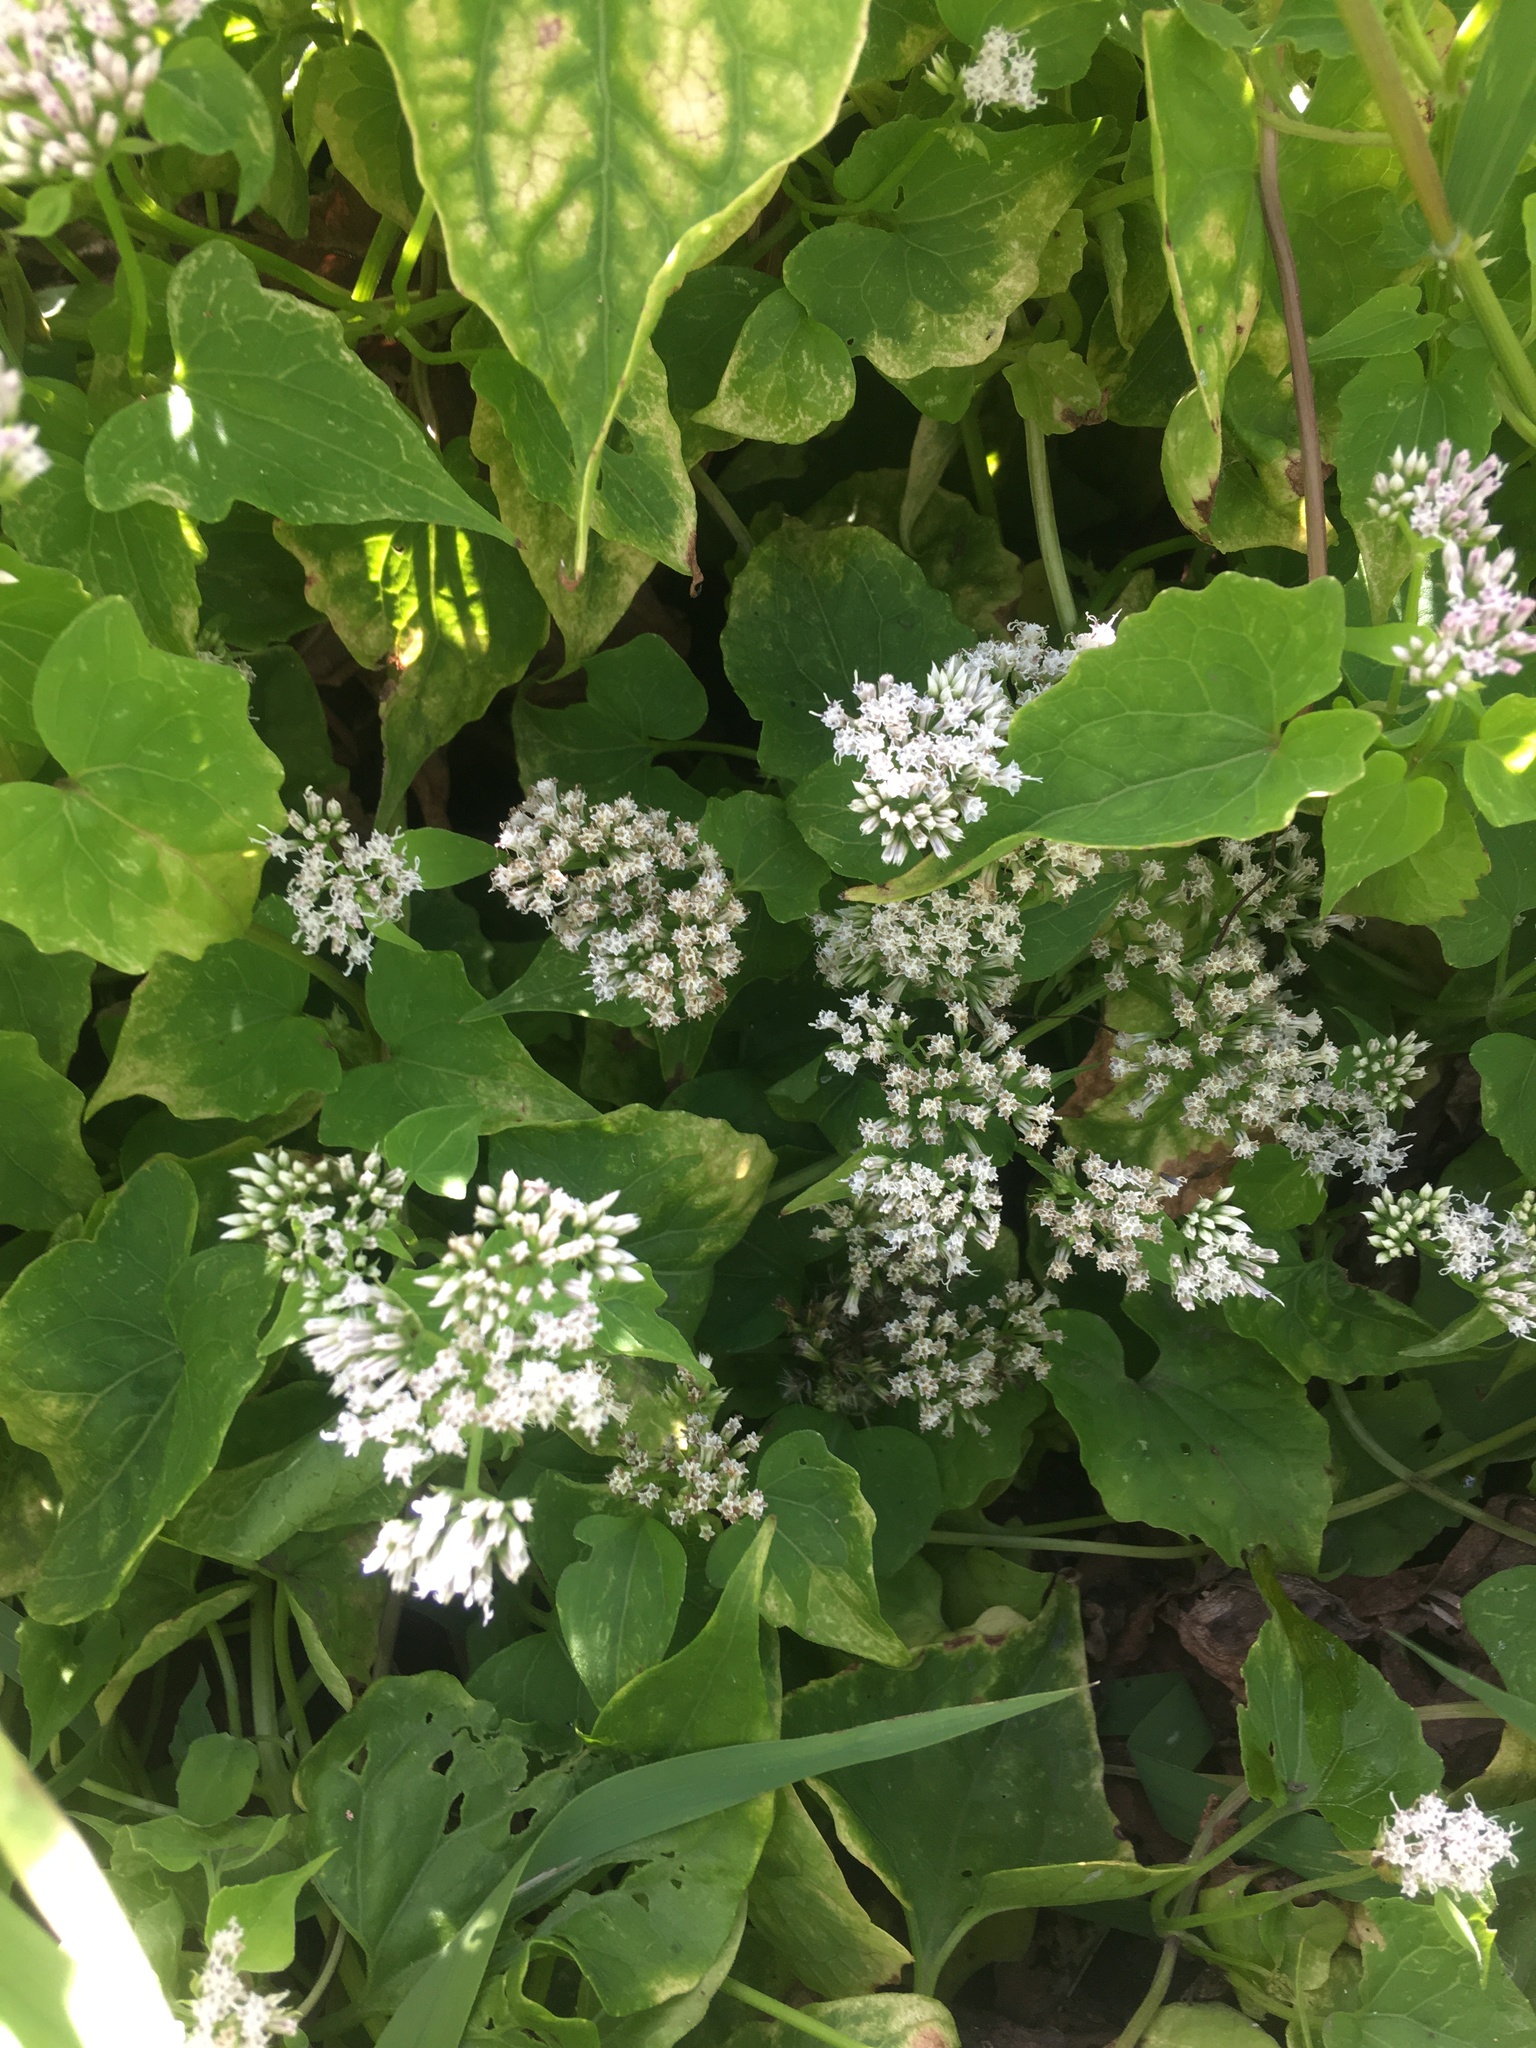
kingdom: Plantae
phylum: Tracheophyta
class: Magnoliopsida
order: Asterales
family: Asteraceae
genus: Mikania
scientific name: Mikania scandens
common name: Climbing hempvine
